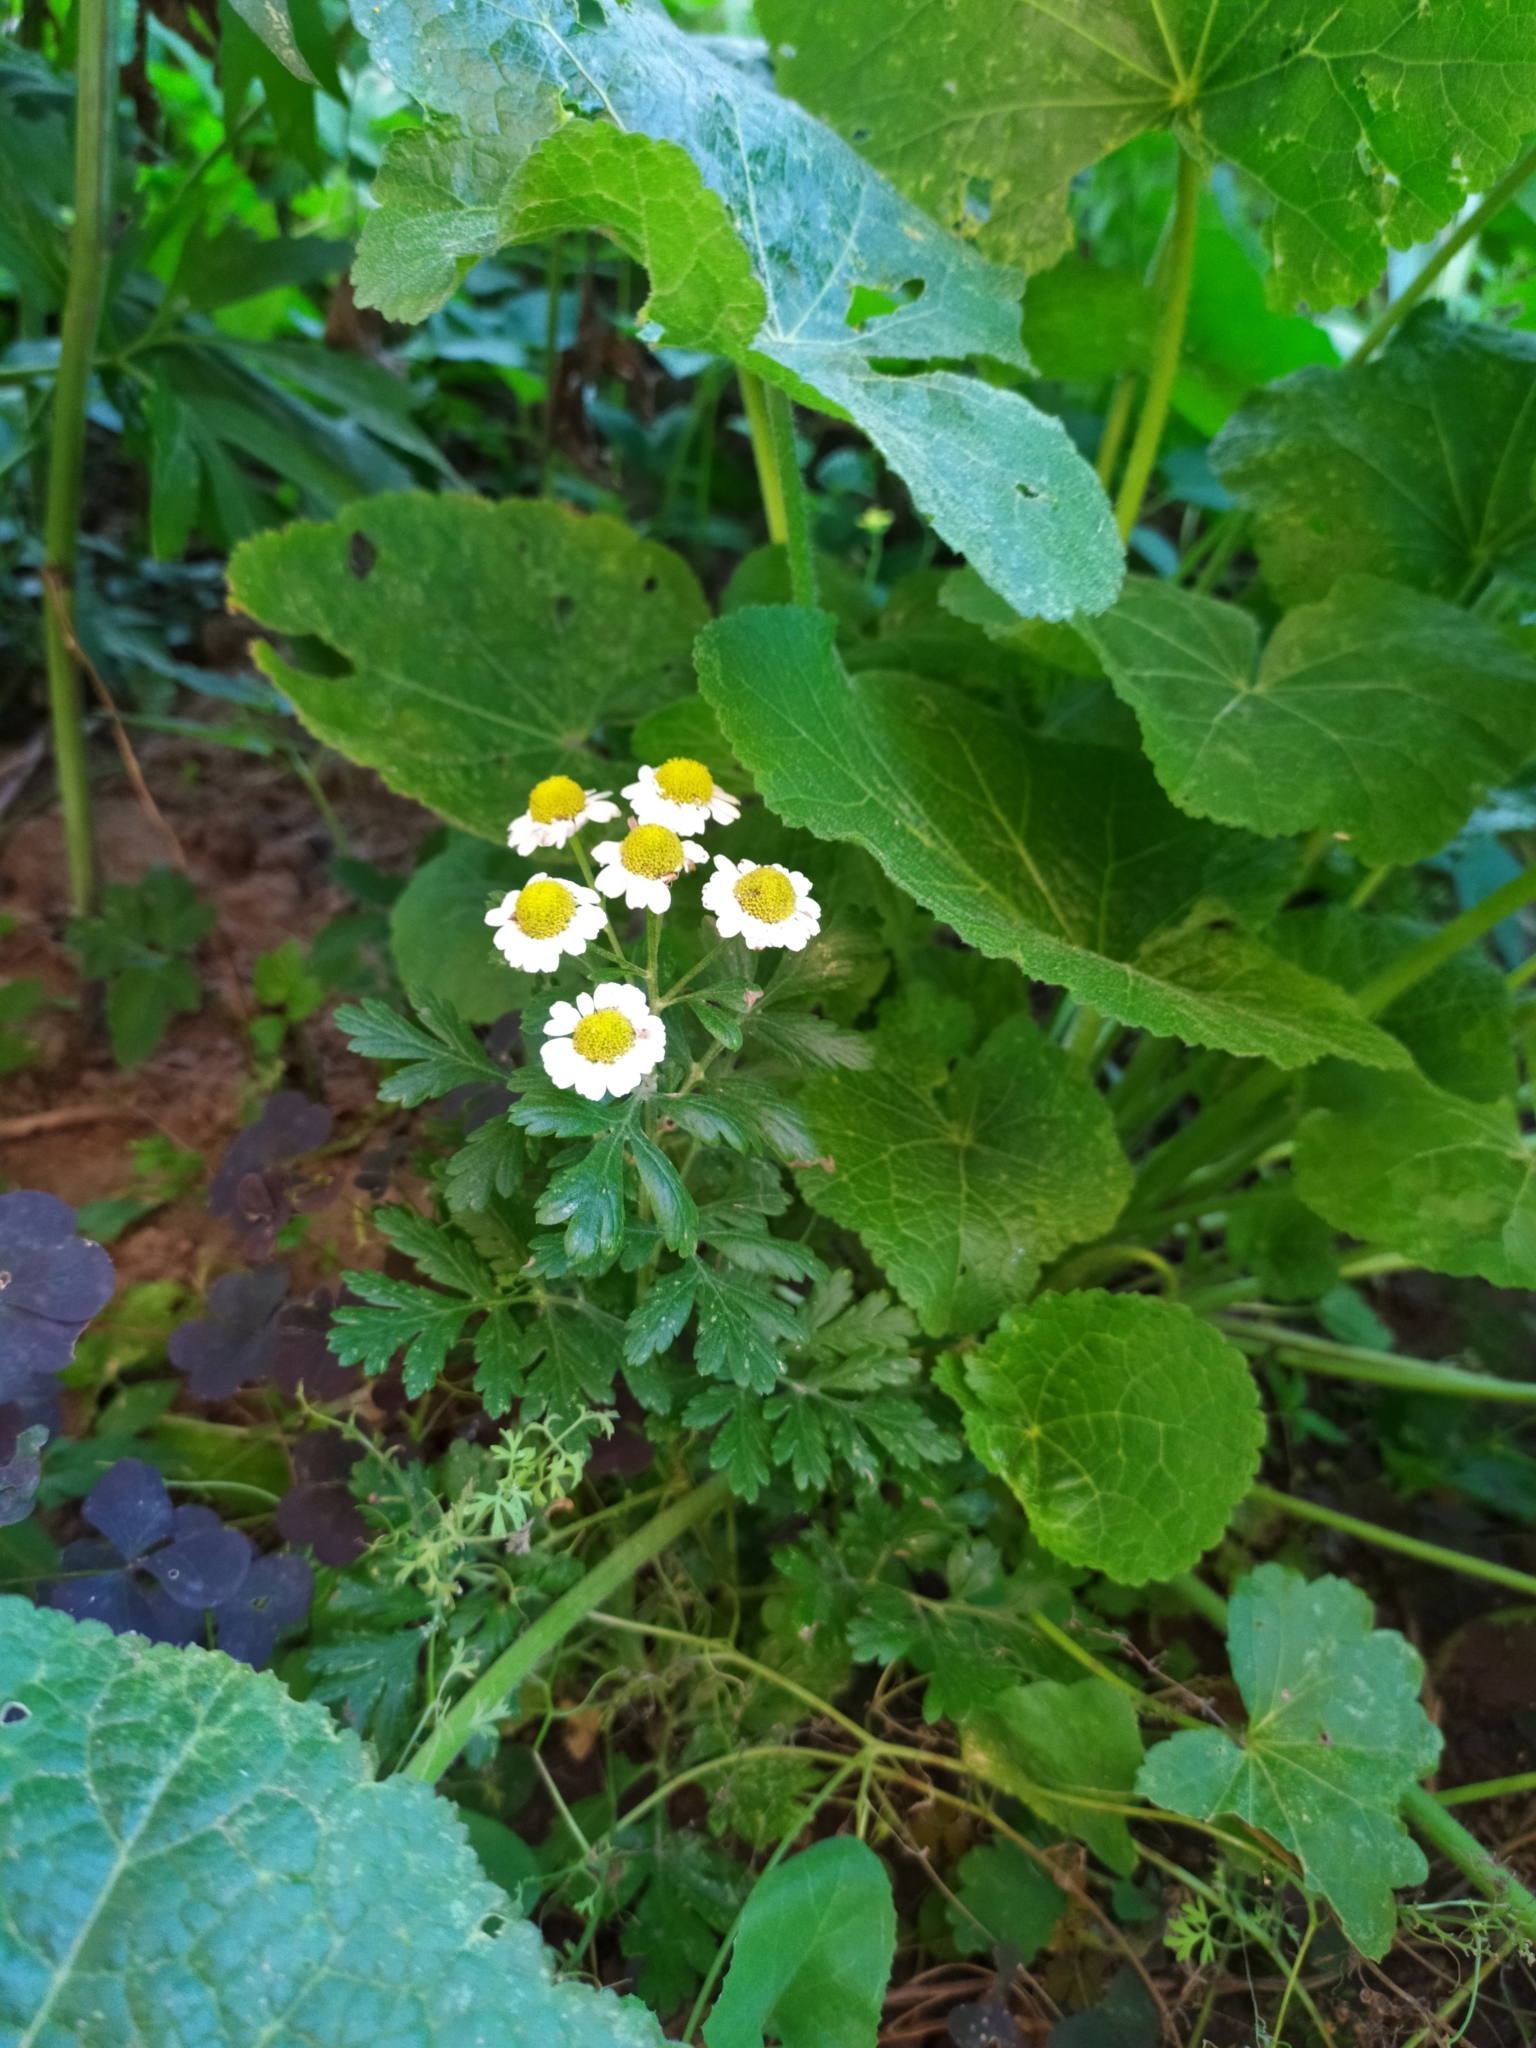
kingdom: Plantae
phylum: Tracheophyta
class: Magnoliopsida
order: Asterales
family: Asteraceae
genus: Tanacetum
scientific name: Tanacetum parthenium
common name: Feverfew
